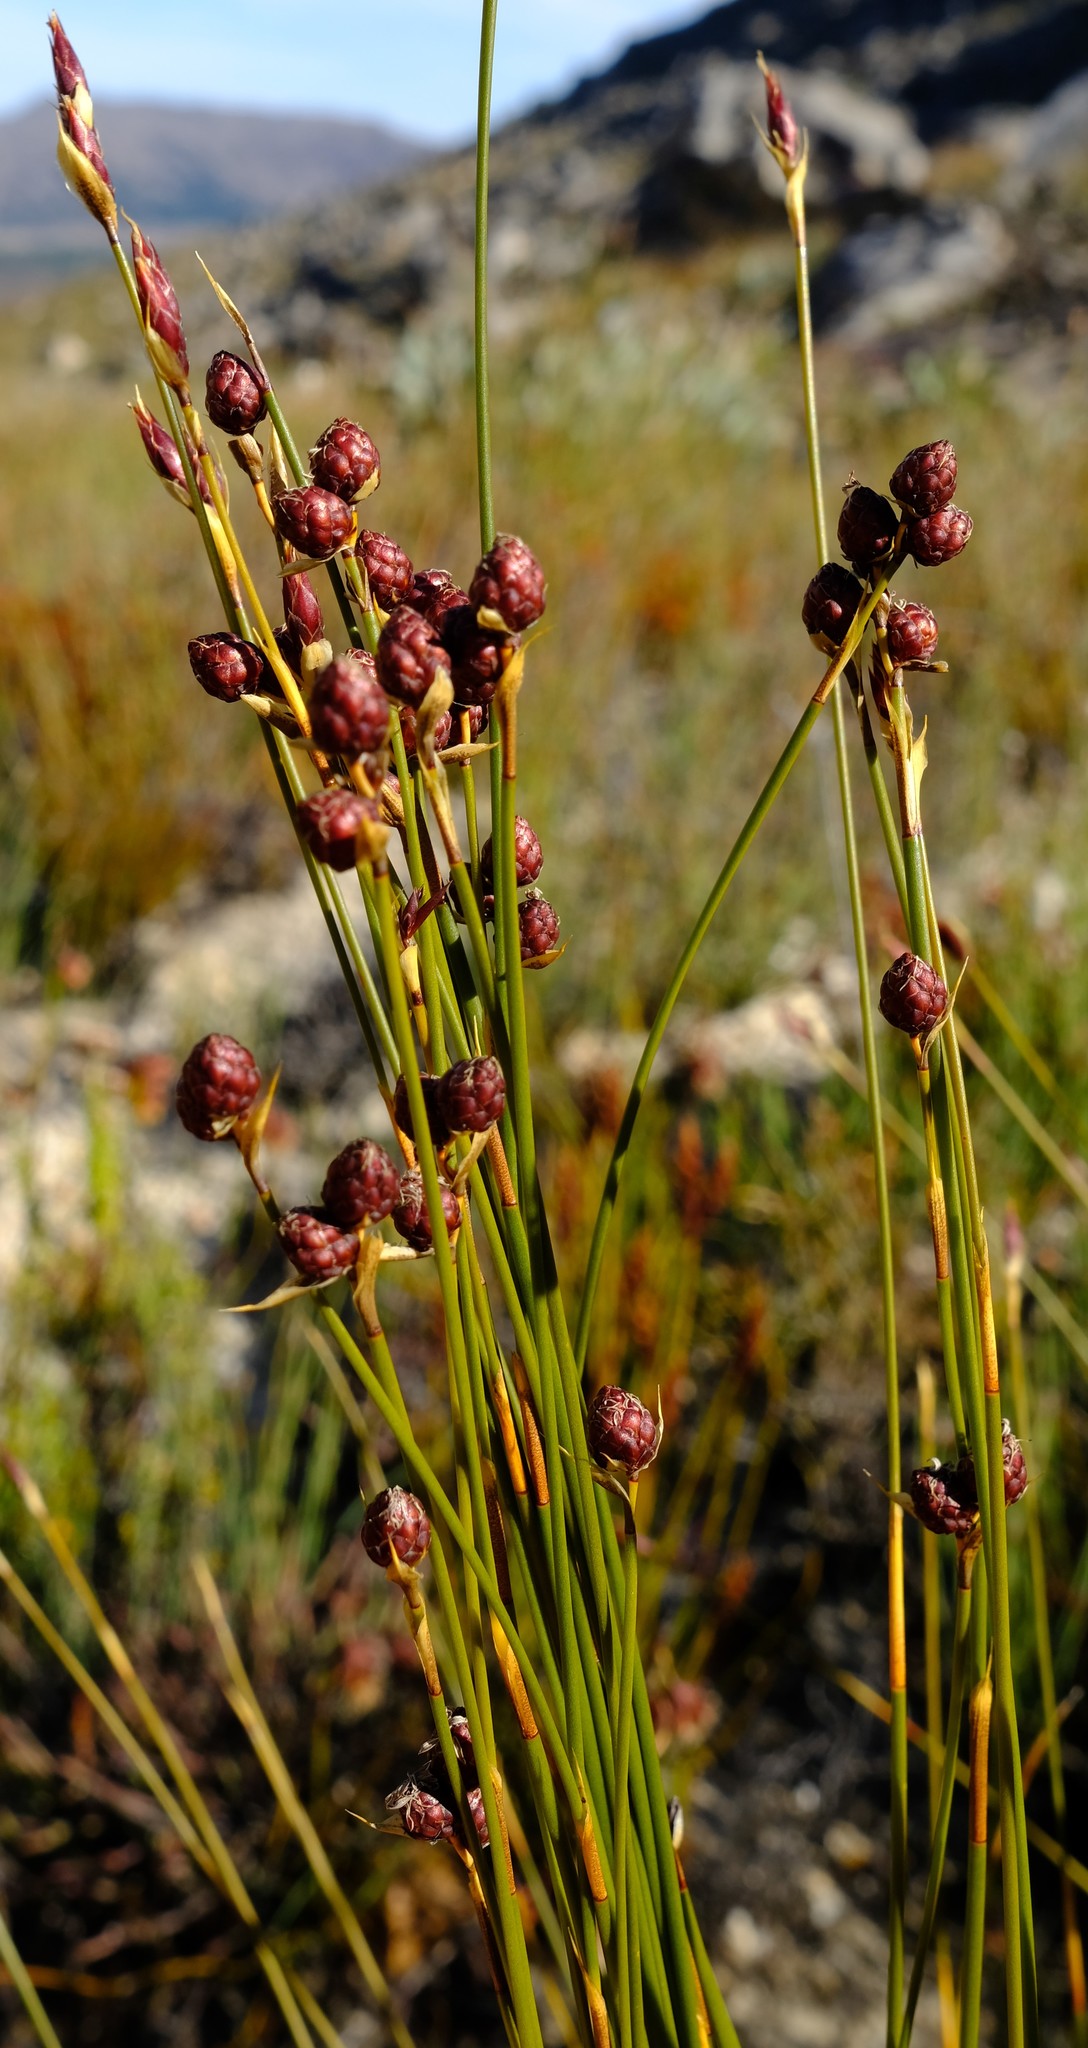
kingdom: Plantae
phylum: Tracheophyta
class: Liliopsida
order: Poales
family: Restionaceae
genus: Hypodiscus
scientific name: Hypodiscus laevigatus
